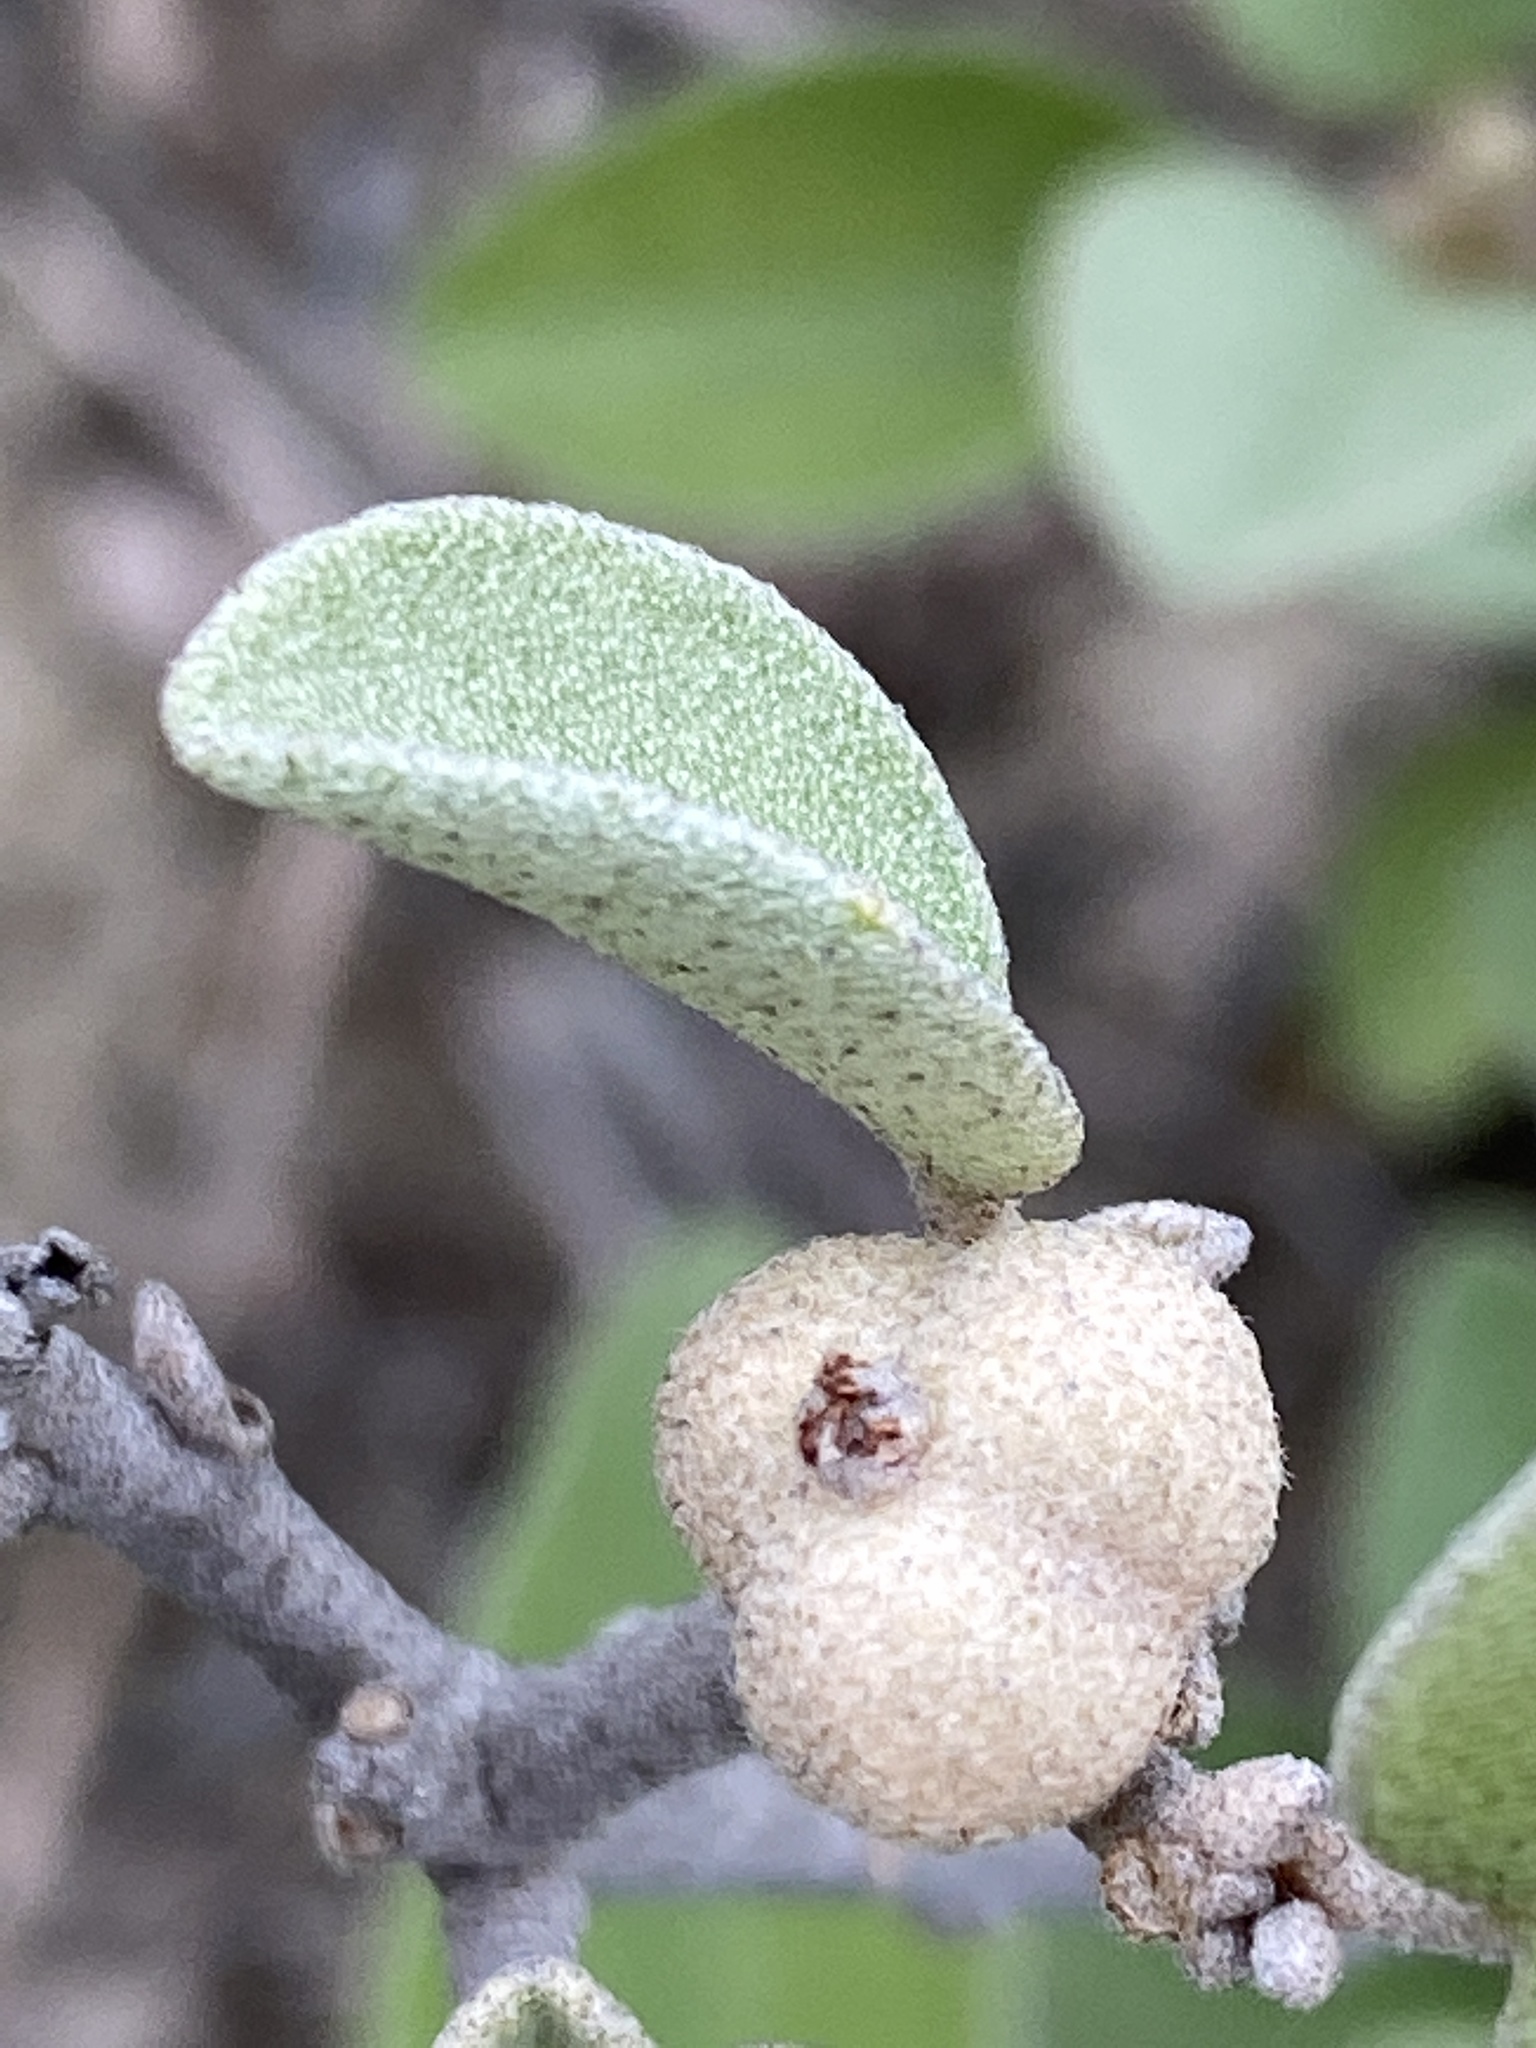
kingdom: Plantae
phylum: Tracheophyta
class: Magnoliopsida
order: Malpighiales
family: Euphorbiaceae
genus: Croton
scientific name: Croton punctatus
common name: Beach-tea
